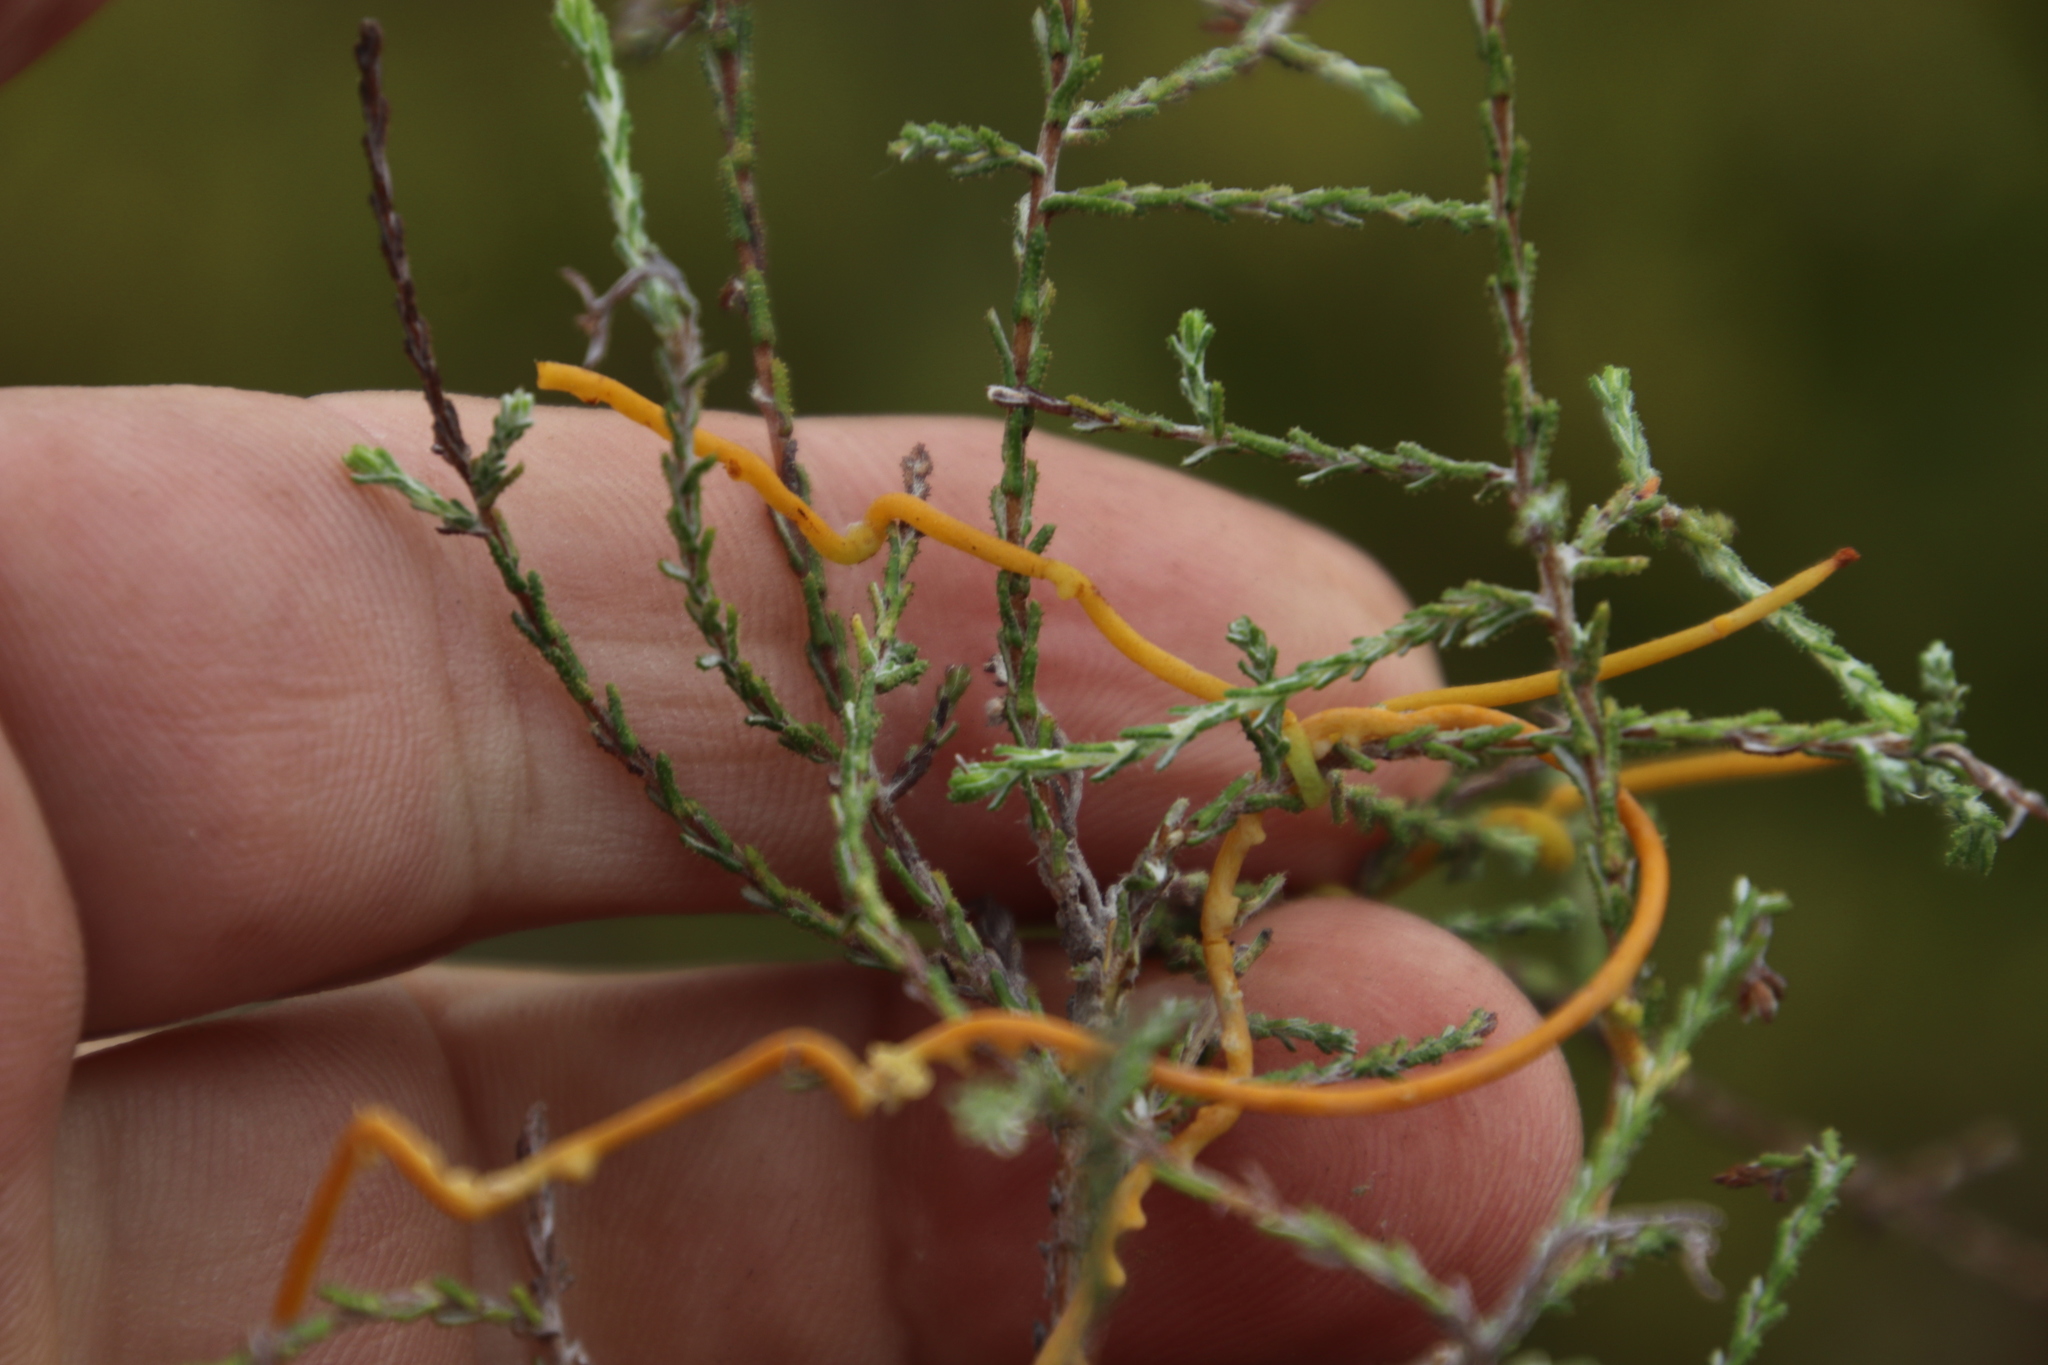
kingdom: Plantae
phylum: Tracheophyta
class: Magnoliopsida
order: Asterales
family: Asteraceae
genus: Metalasia
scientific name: Metalasia densa
